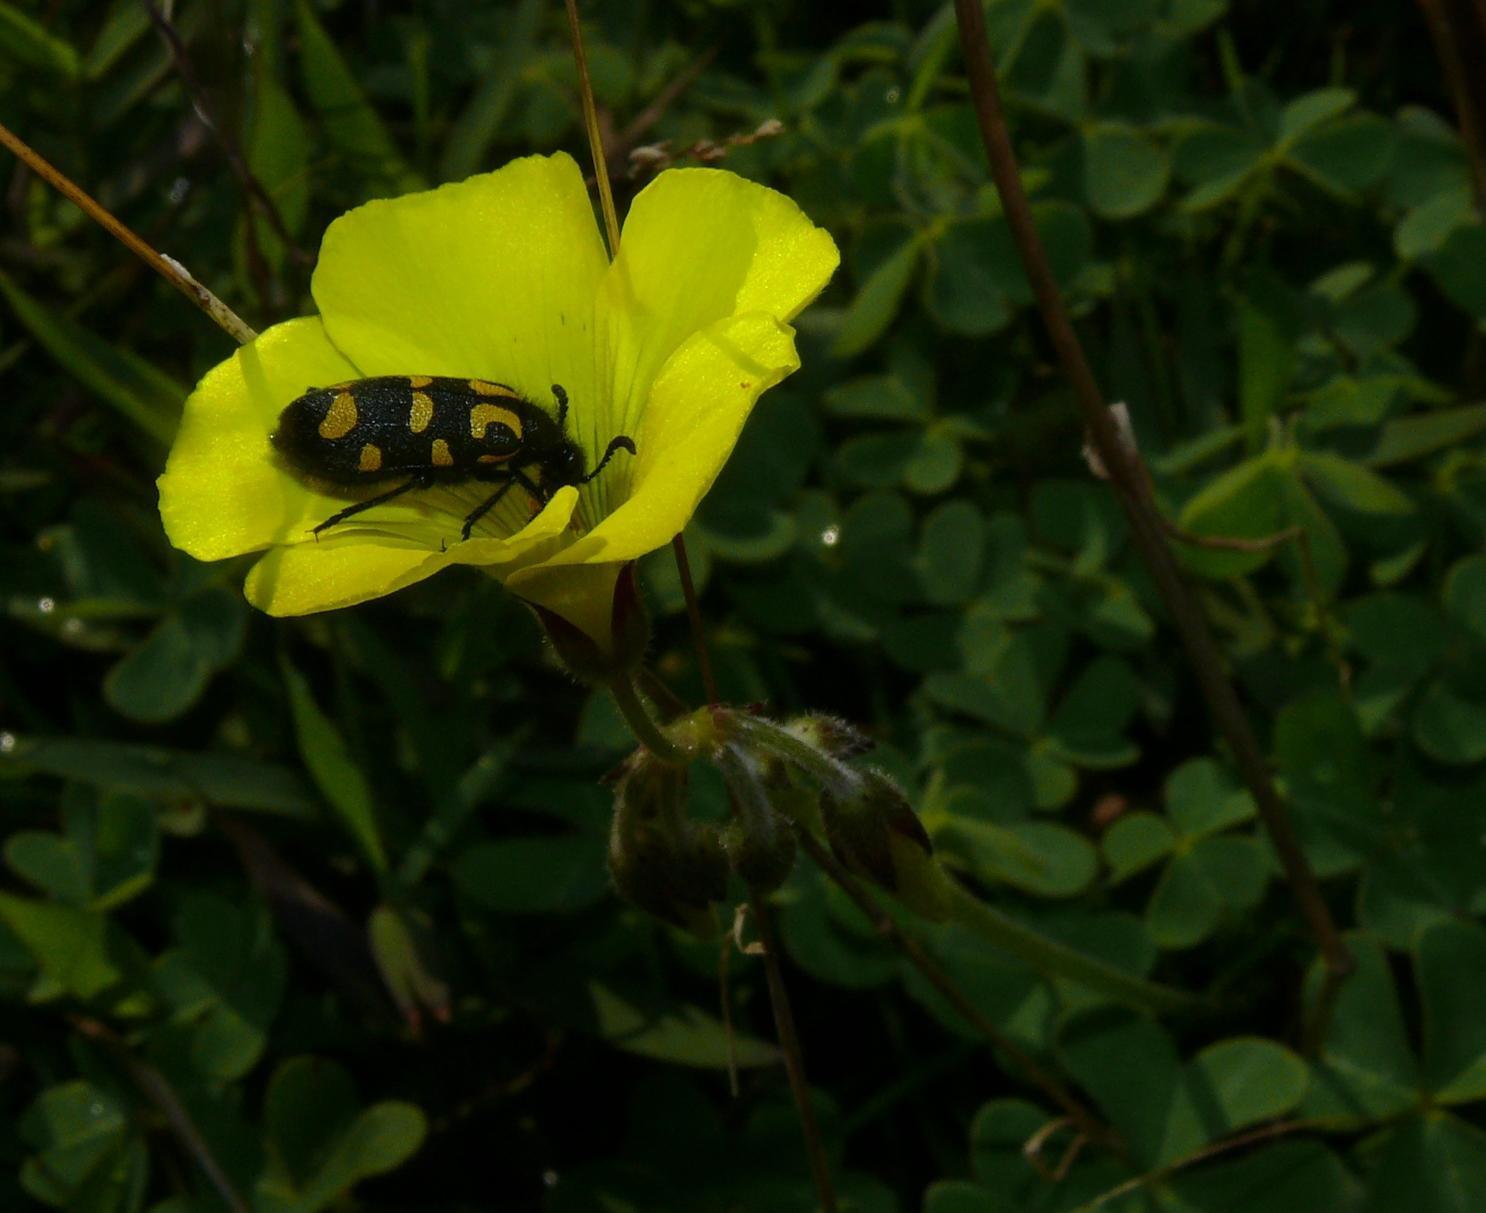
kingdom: Animalia
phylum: Arthropoda
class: Insecta
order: Coleoptera
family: Meloidae
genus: Ceroctis
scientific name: Ceroctis capensis
